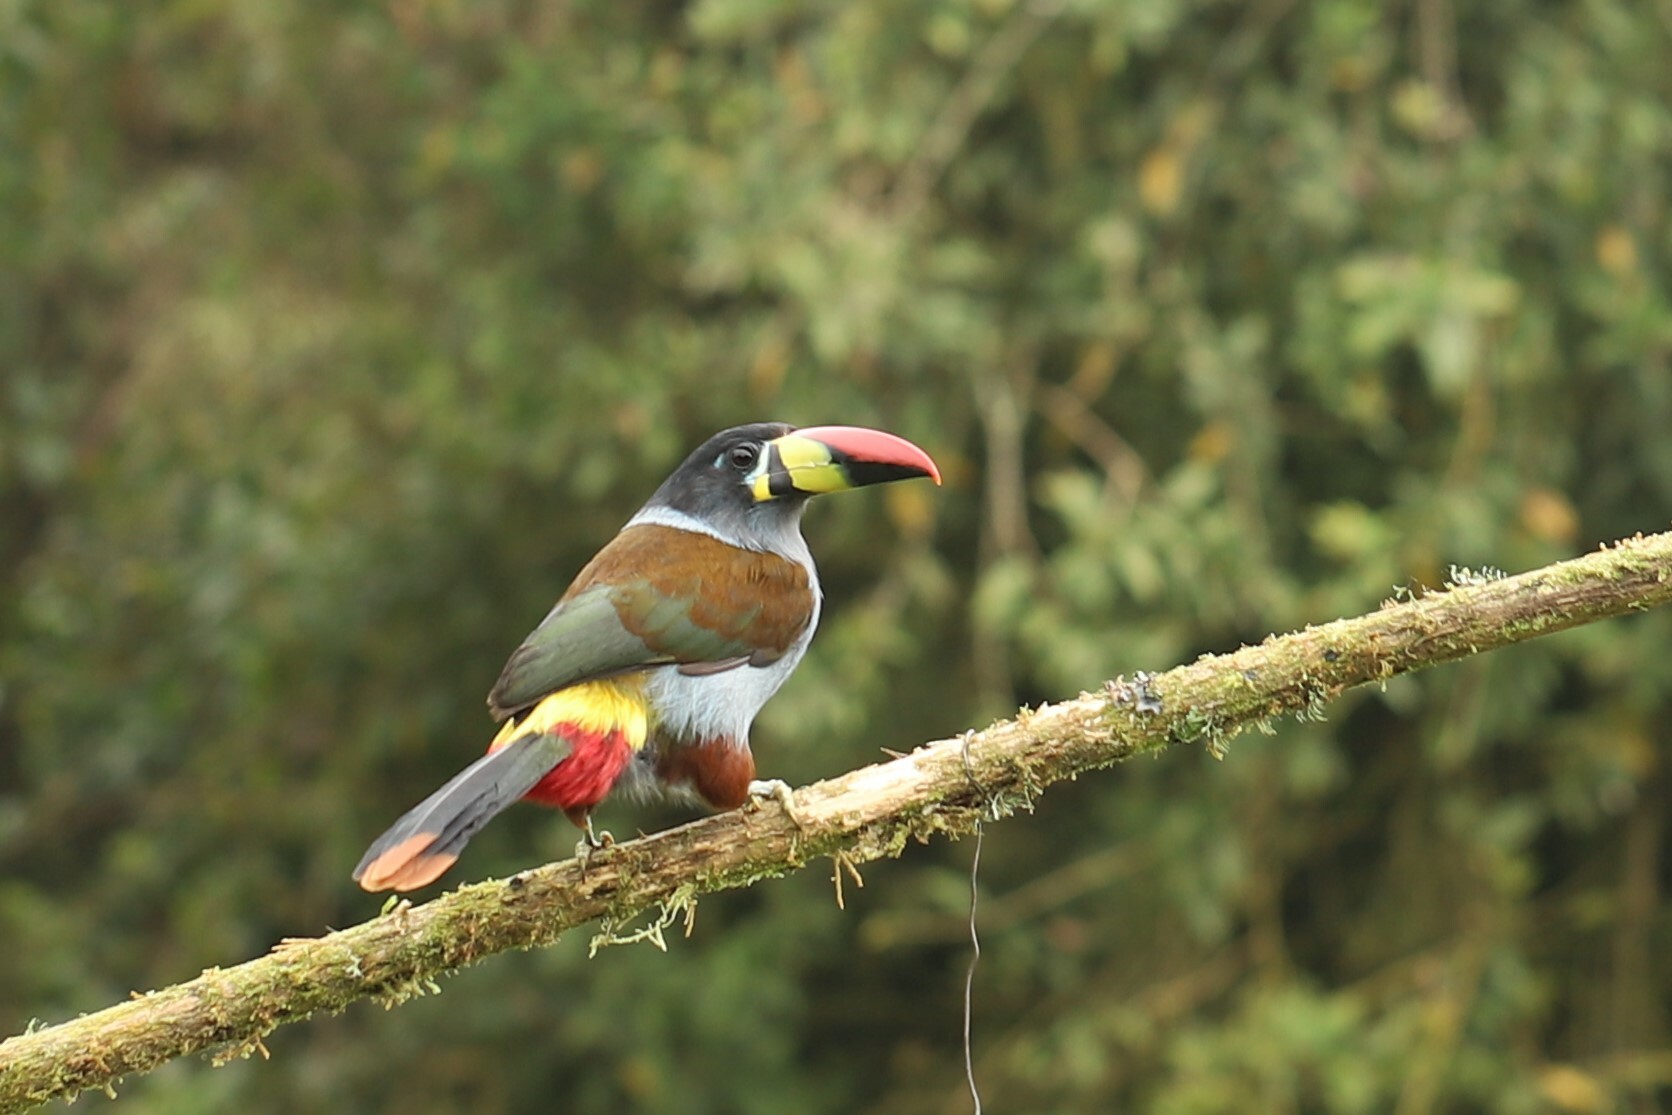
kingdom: Animalia
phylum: Chordata
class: Aves
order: Piciformes
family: Ramphastidae
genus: Andigena
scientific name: Andigena hypoglauca
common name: Grey-breasted mountain toucan
